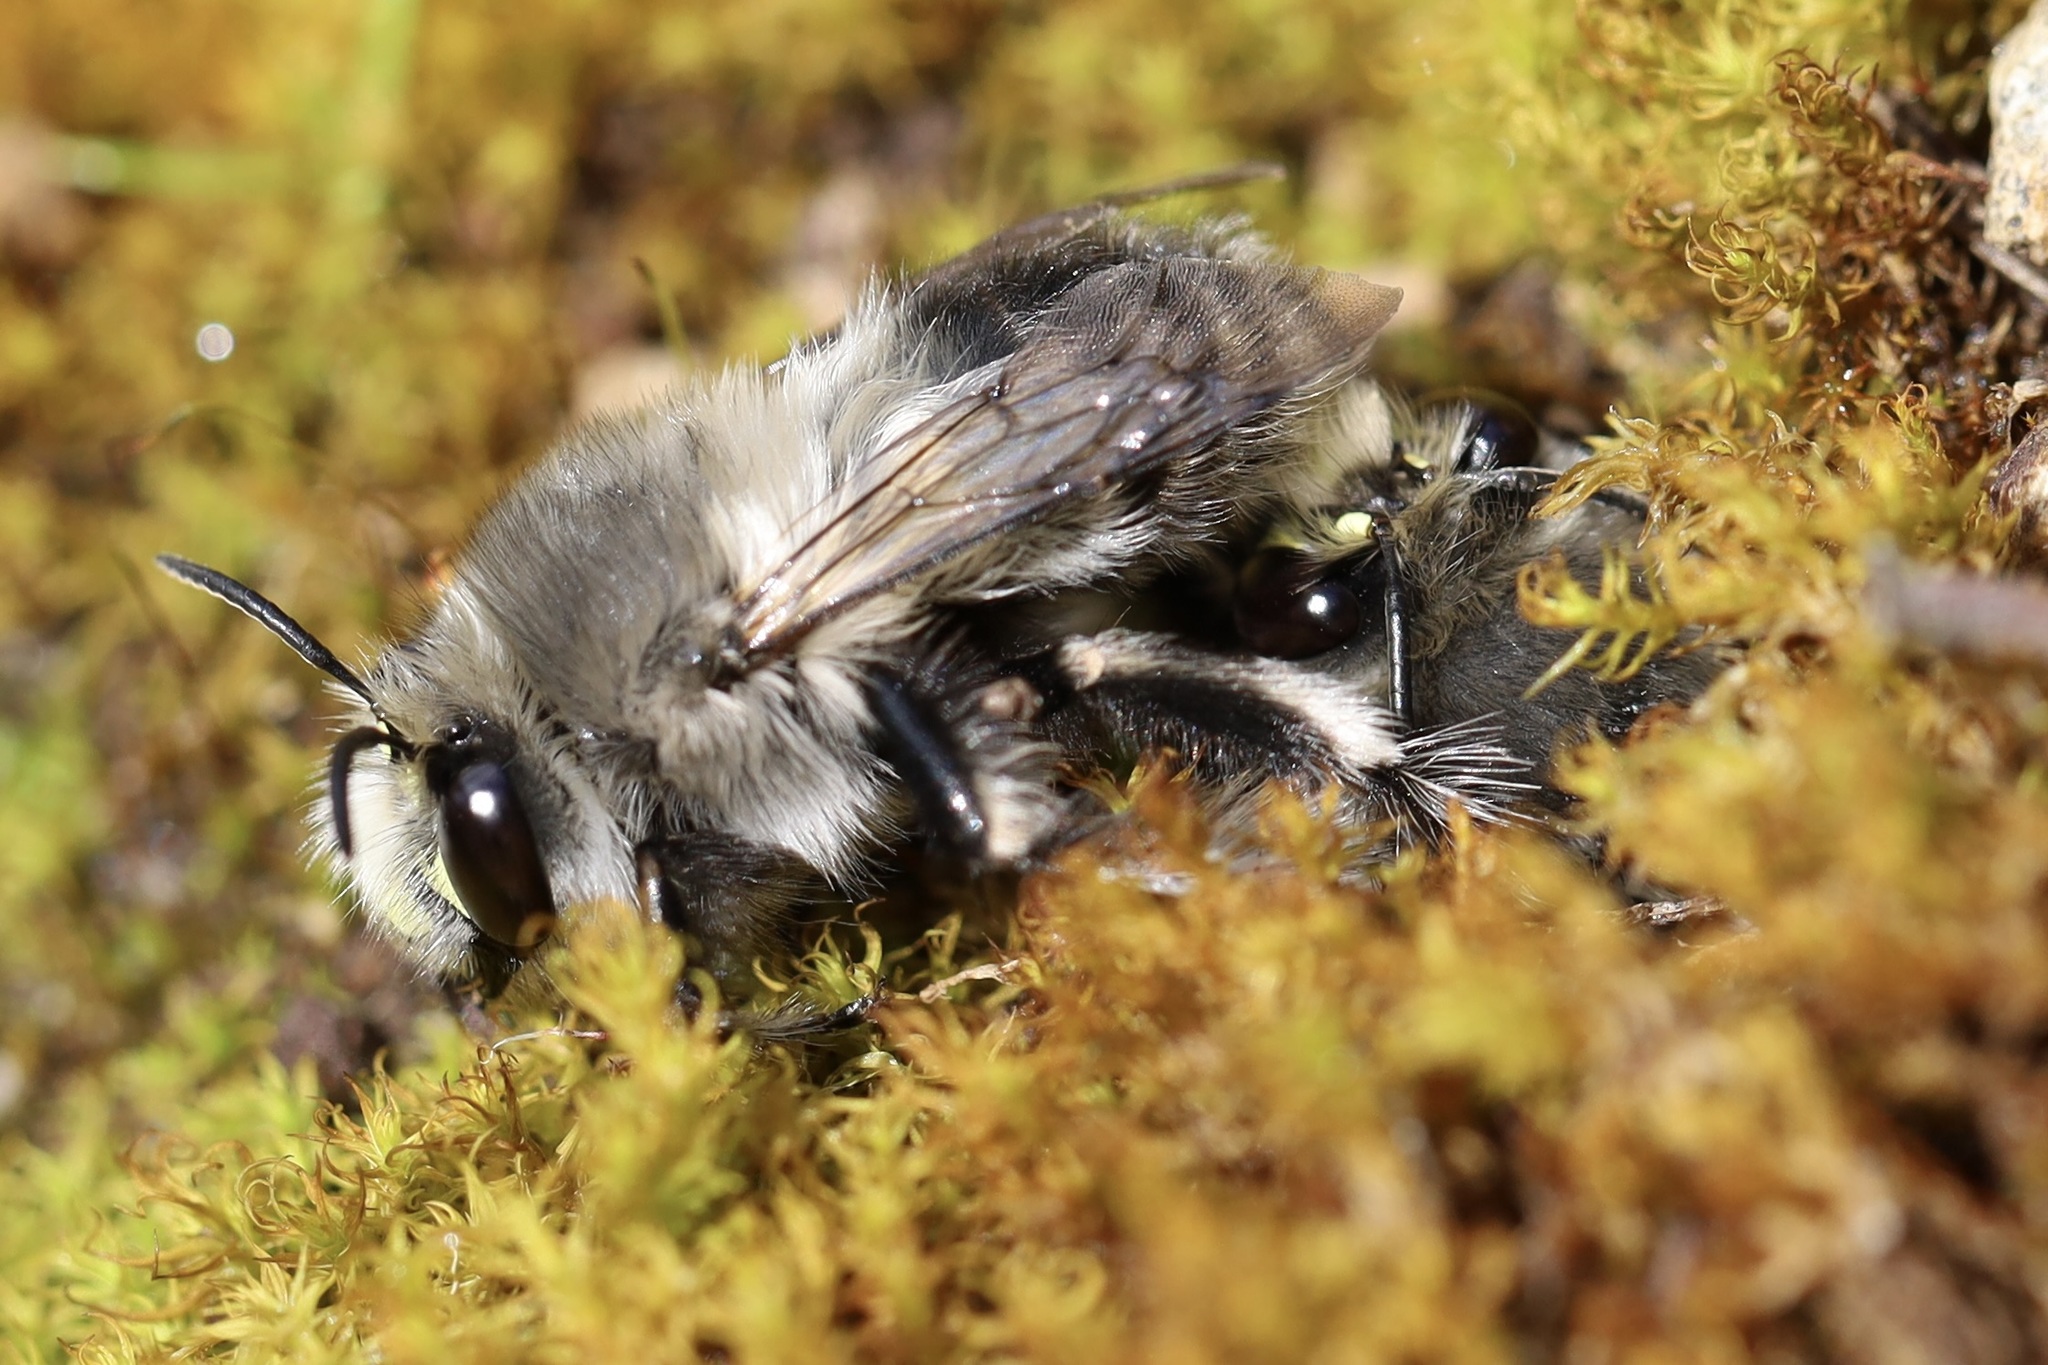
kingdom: Animalia
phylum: Arthropoda
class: Insecta
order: Hymenoptera
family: Apidae
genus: Anthophora
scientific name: Anthophora pacifica
